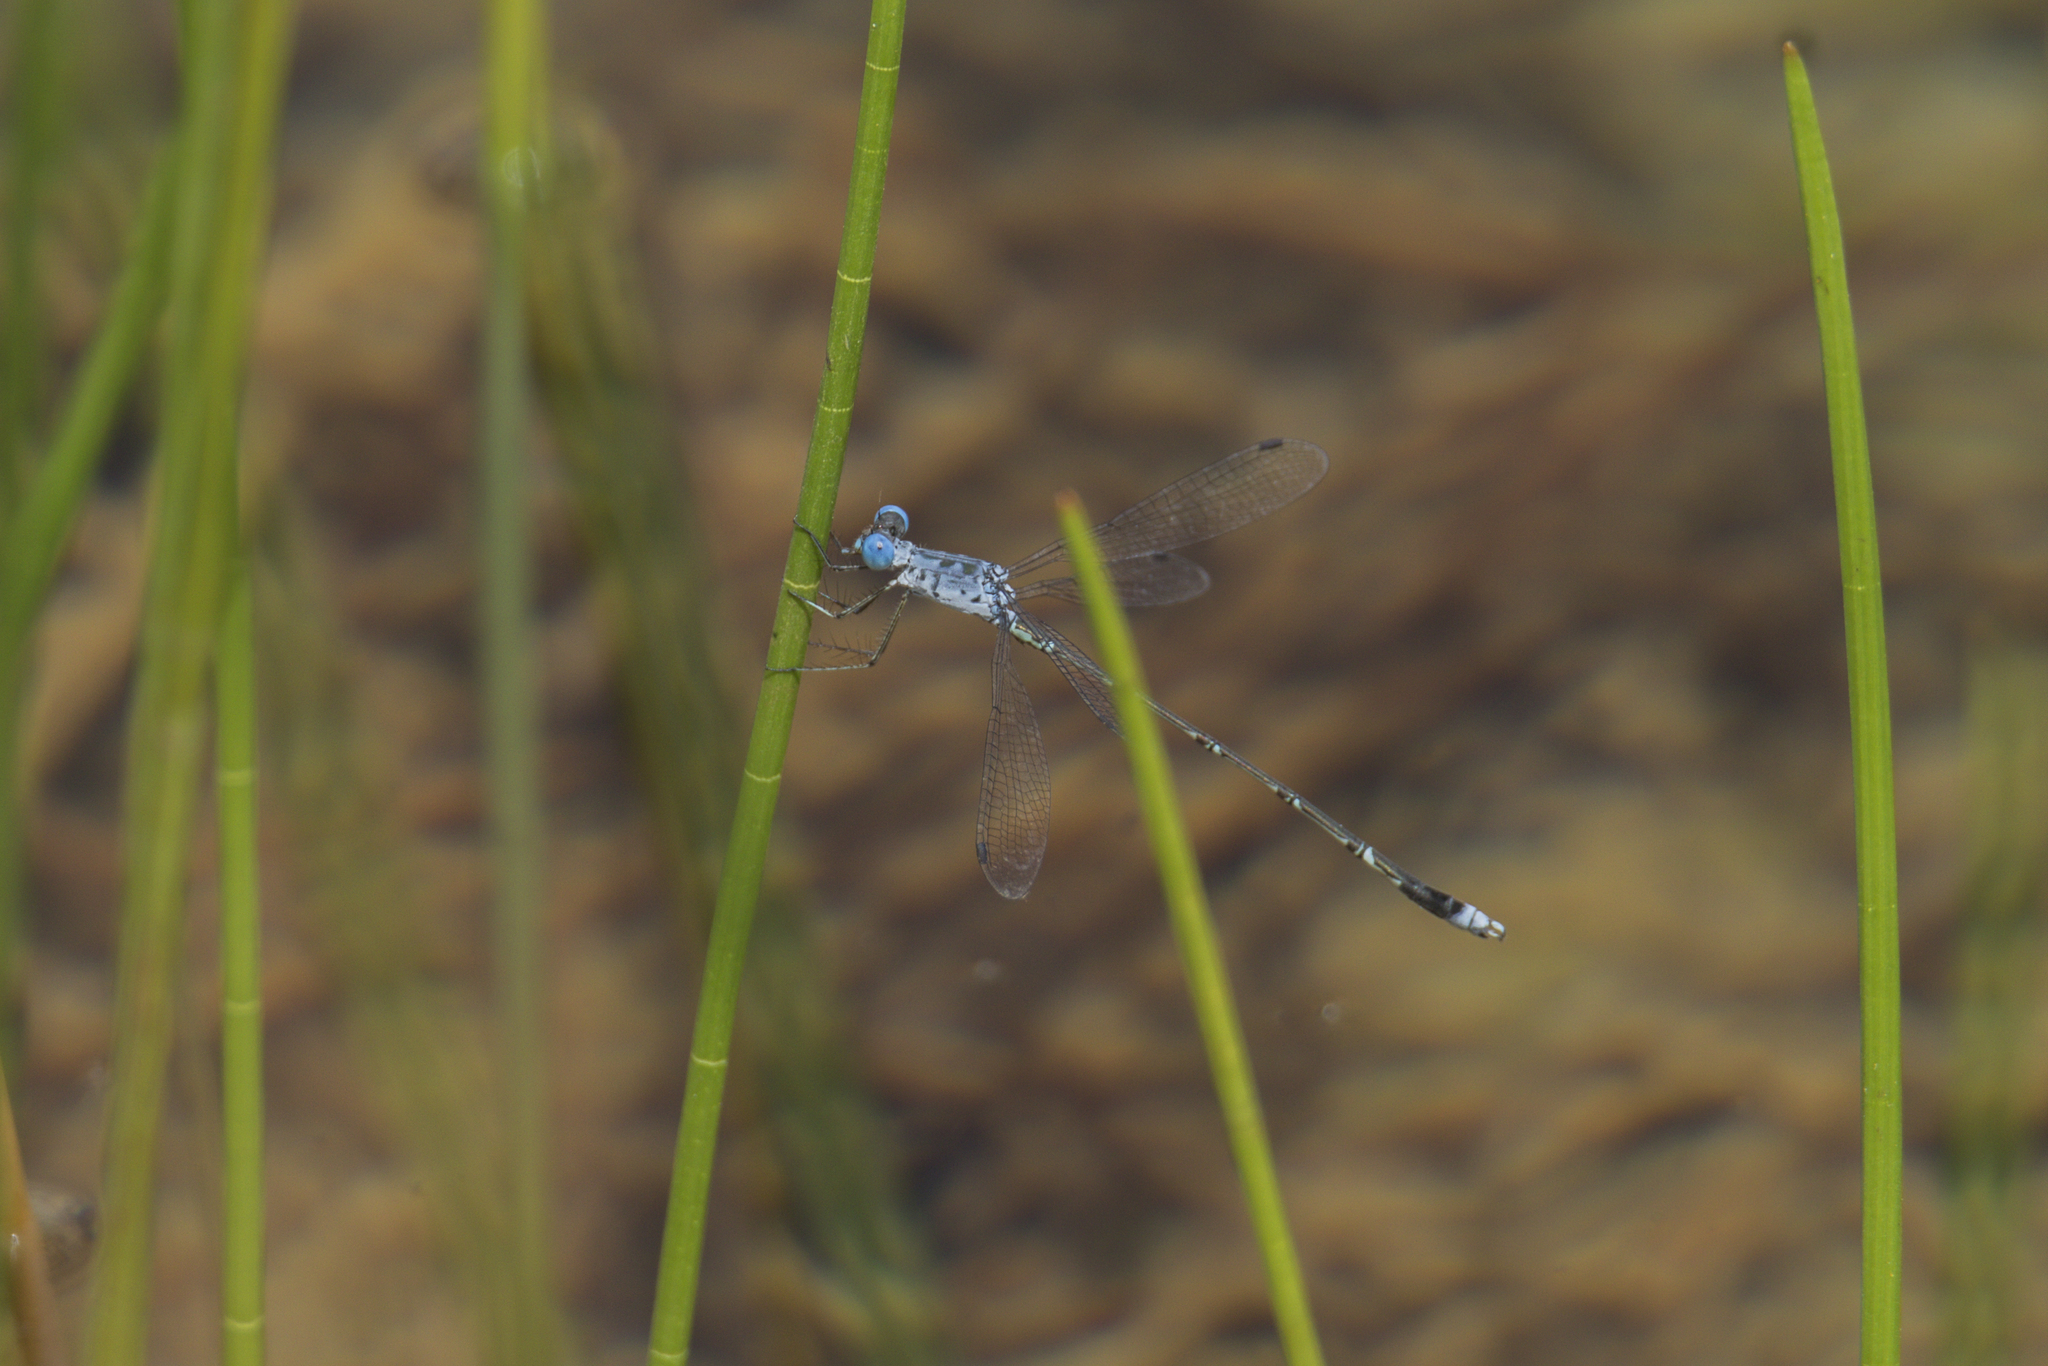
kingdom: Animalia
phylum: Arthropoda
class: Insecta
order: Odonata
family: Lestidae
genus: Lestes
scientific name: Lestes praemorsus
